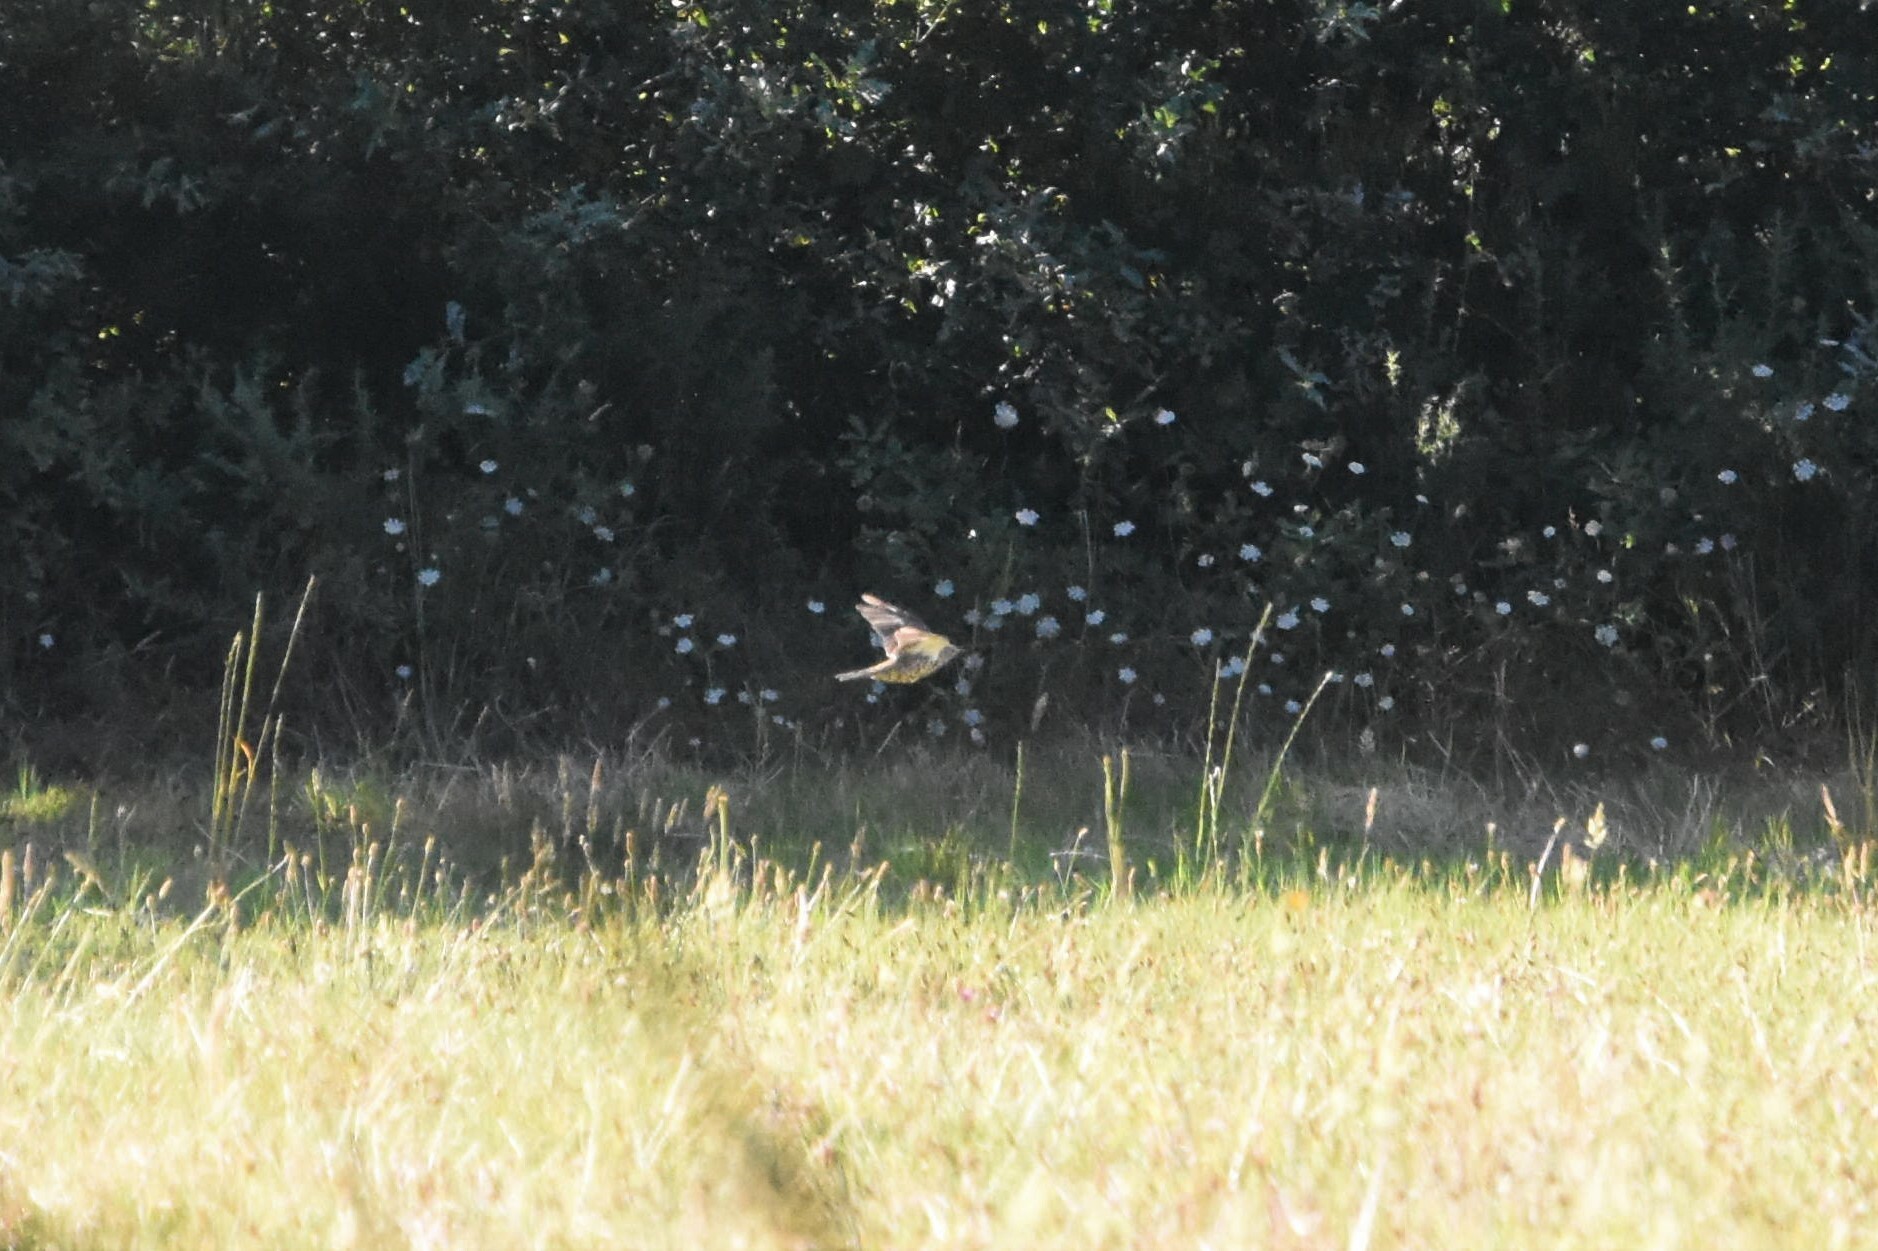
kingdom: Animalia
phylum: Chordata
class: Aves
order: Passeriformes
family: Turdidae
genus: Turdus
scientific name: Turdus viscivorus
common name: Mistle thrush
